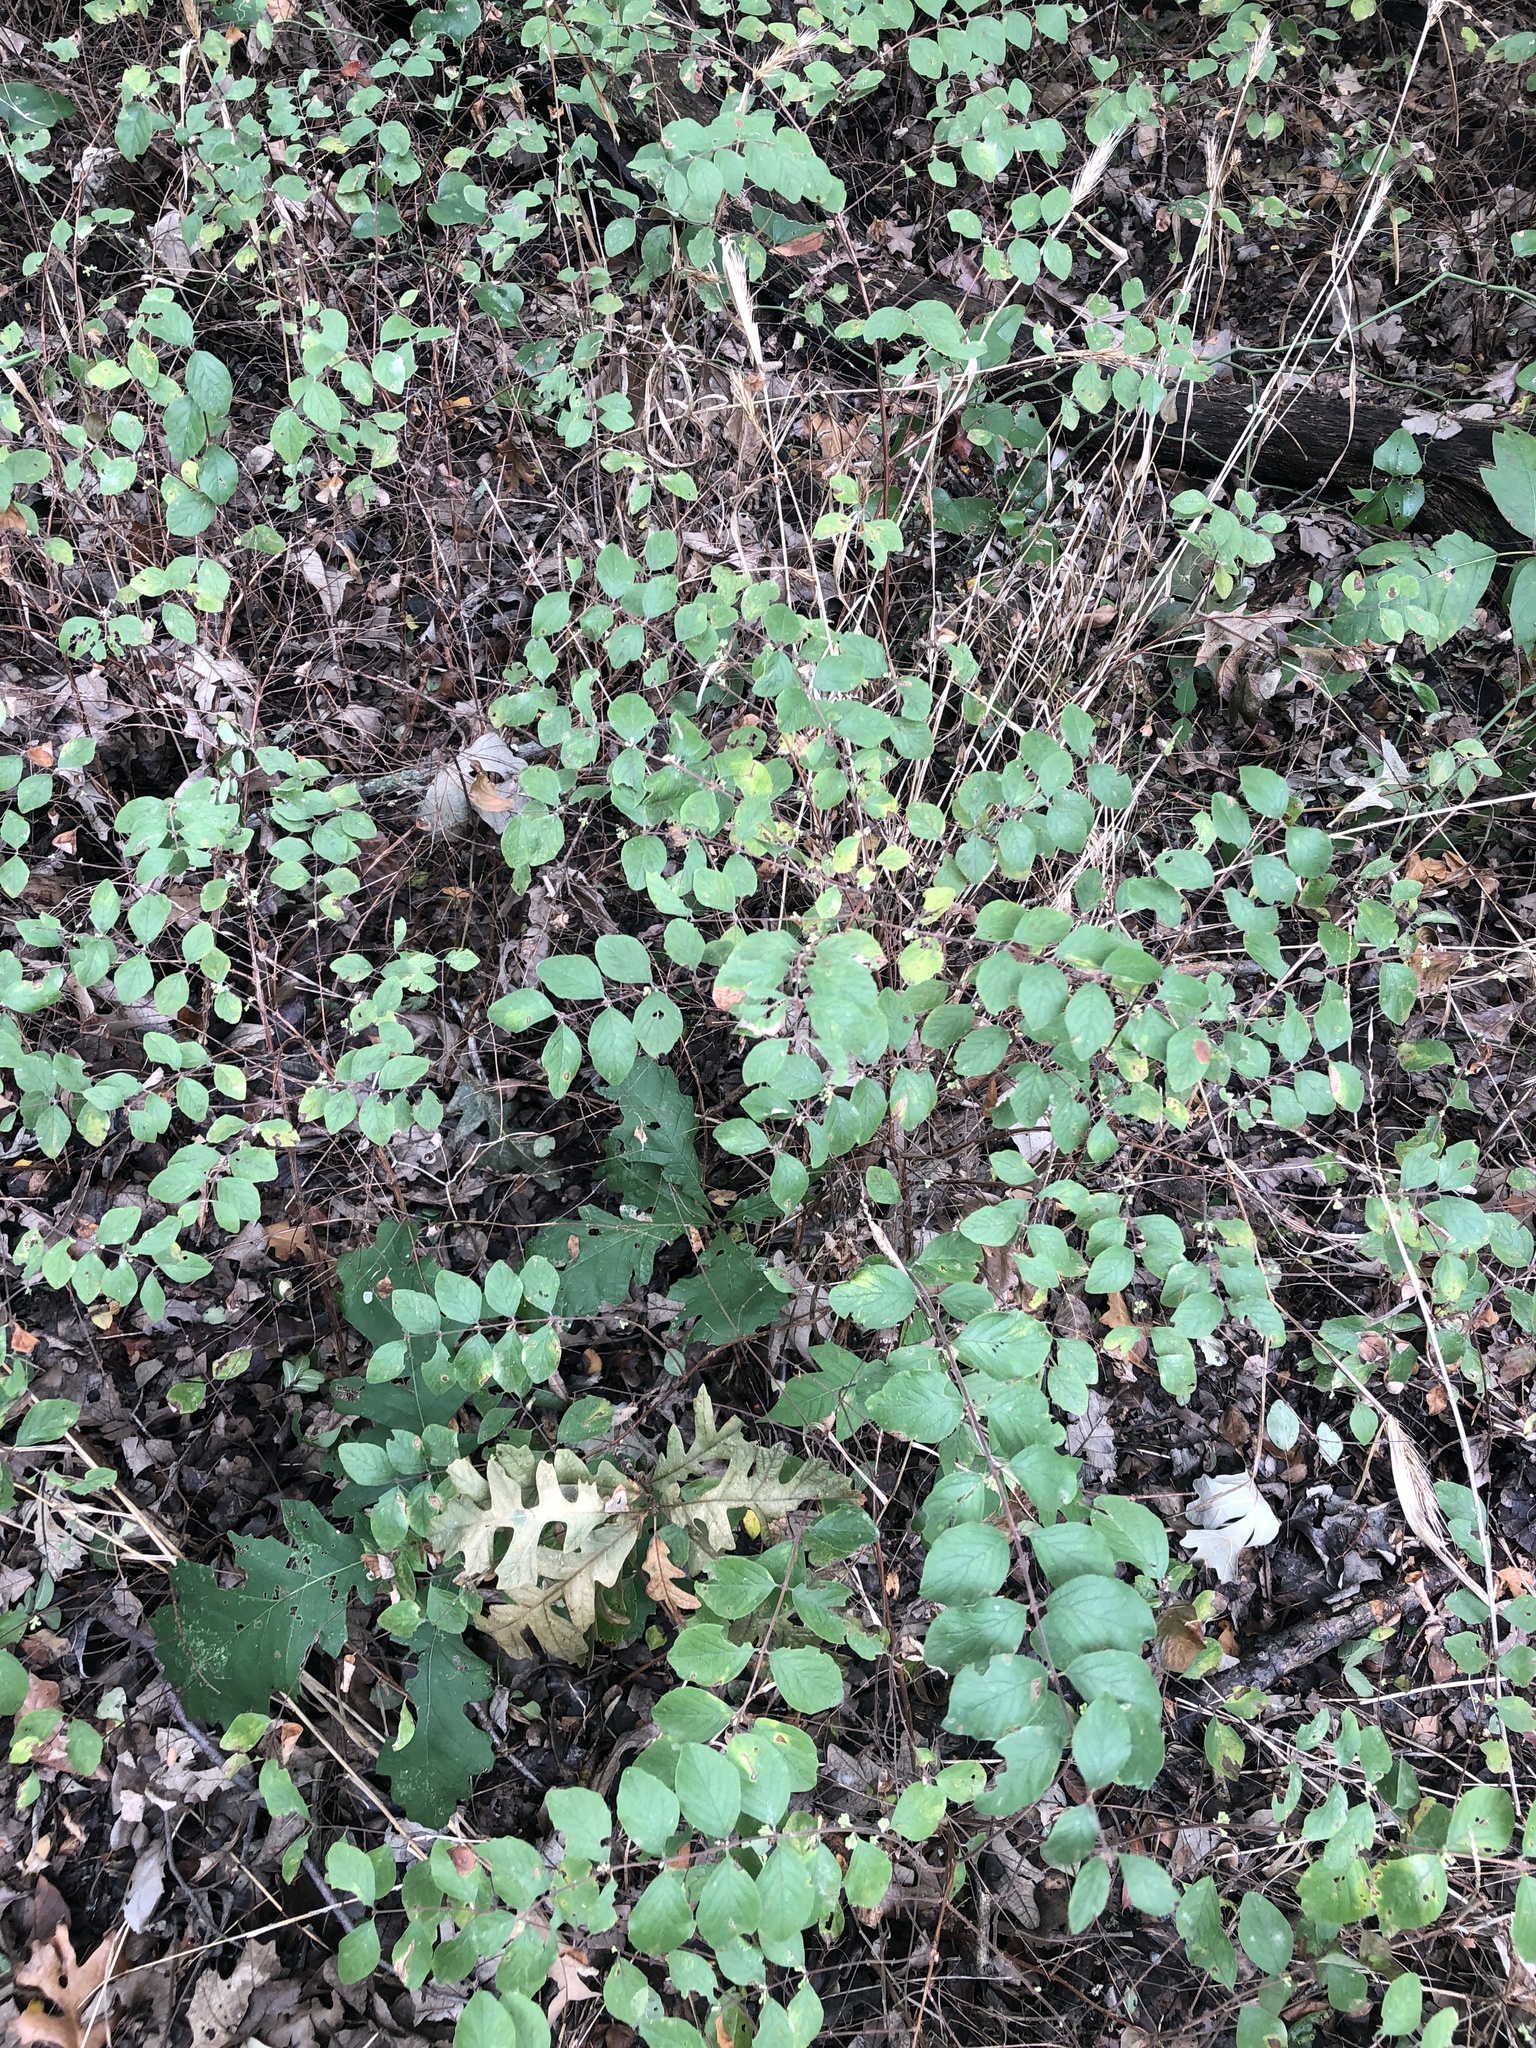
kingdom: Plantae
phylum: Tracheophyta
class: Magnoliopsida
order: Dipsacales
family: Caprifoliaceae
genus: Symphoricarpos
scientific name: Symphoricarpos orbiculatus
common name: Coralberry
